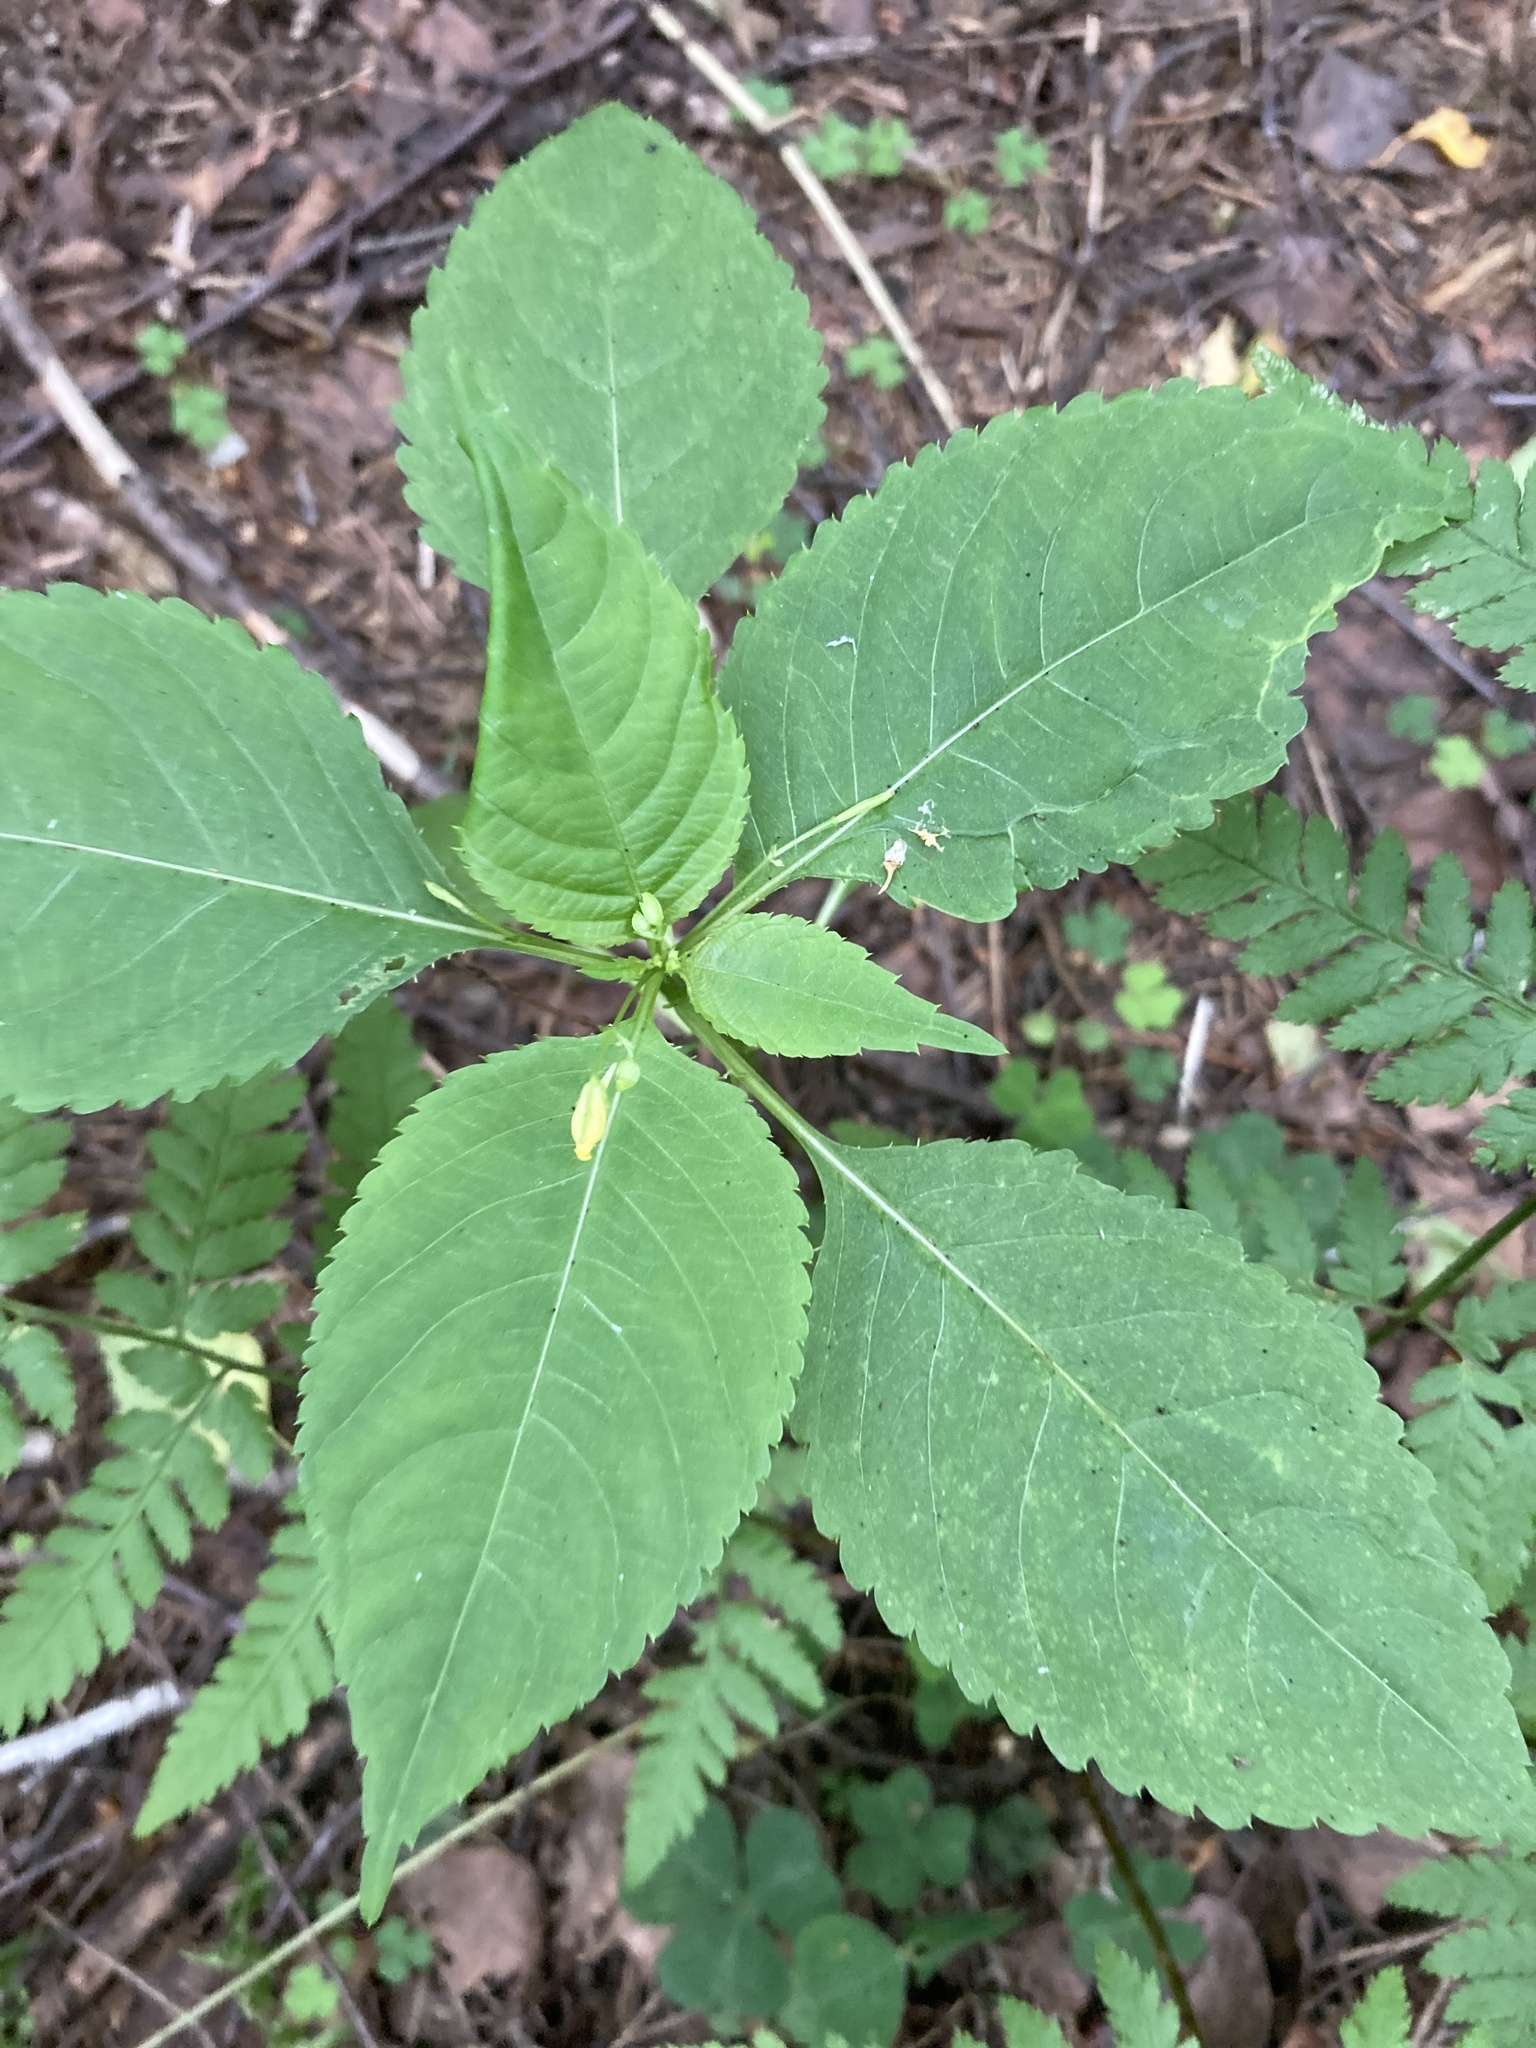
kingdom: Plantae
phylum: Tracheophyta
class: Magnoliopsida
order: Ericales
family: Balsaminaceae
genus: Impatiens
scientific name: Impatiens parviflora
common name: Small balsam
